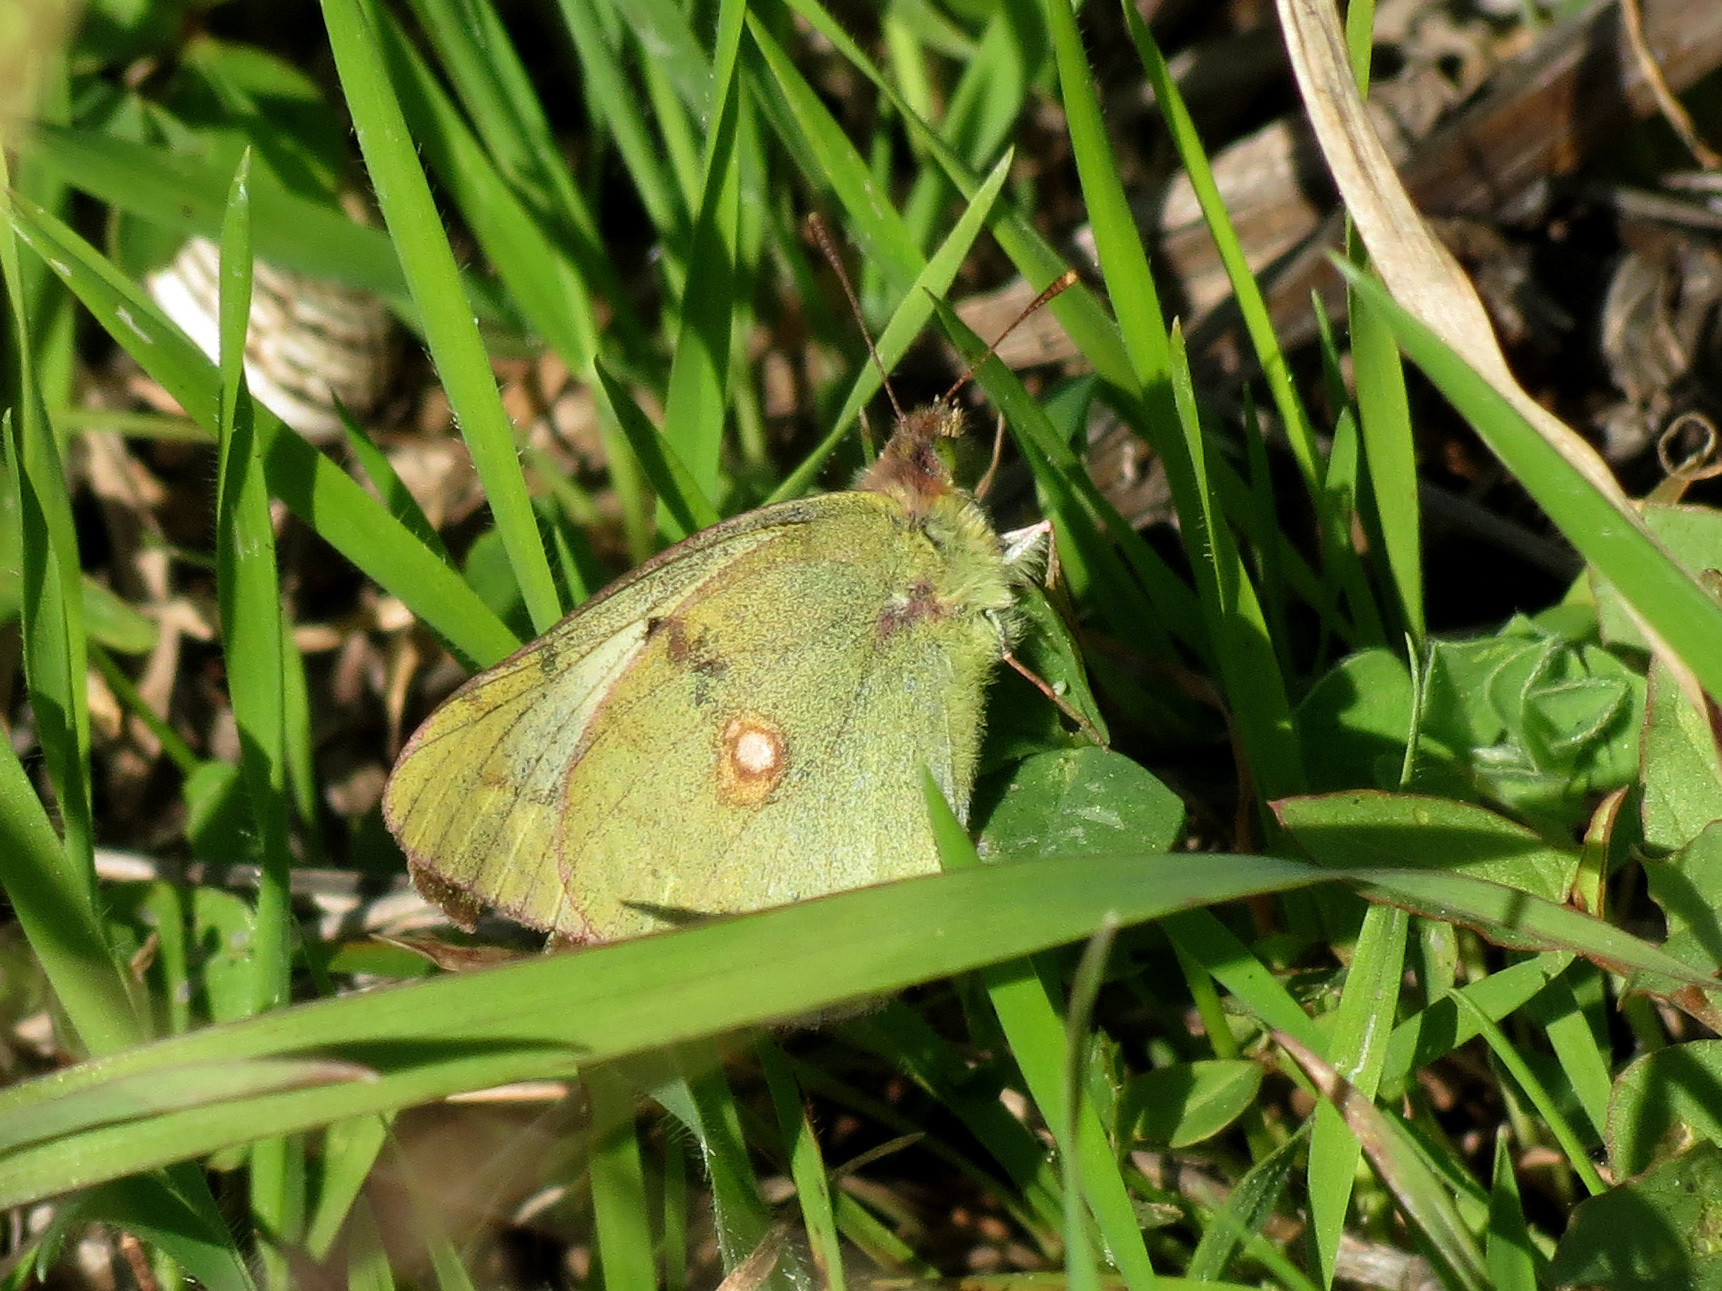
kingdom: Animalia
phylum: Arthropoda
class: Insecta
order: Lepidoptera
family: Pieridae
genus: Colias
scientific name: Colias croceus
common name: Clouded yellow
